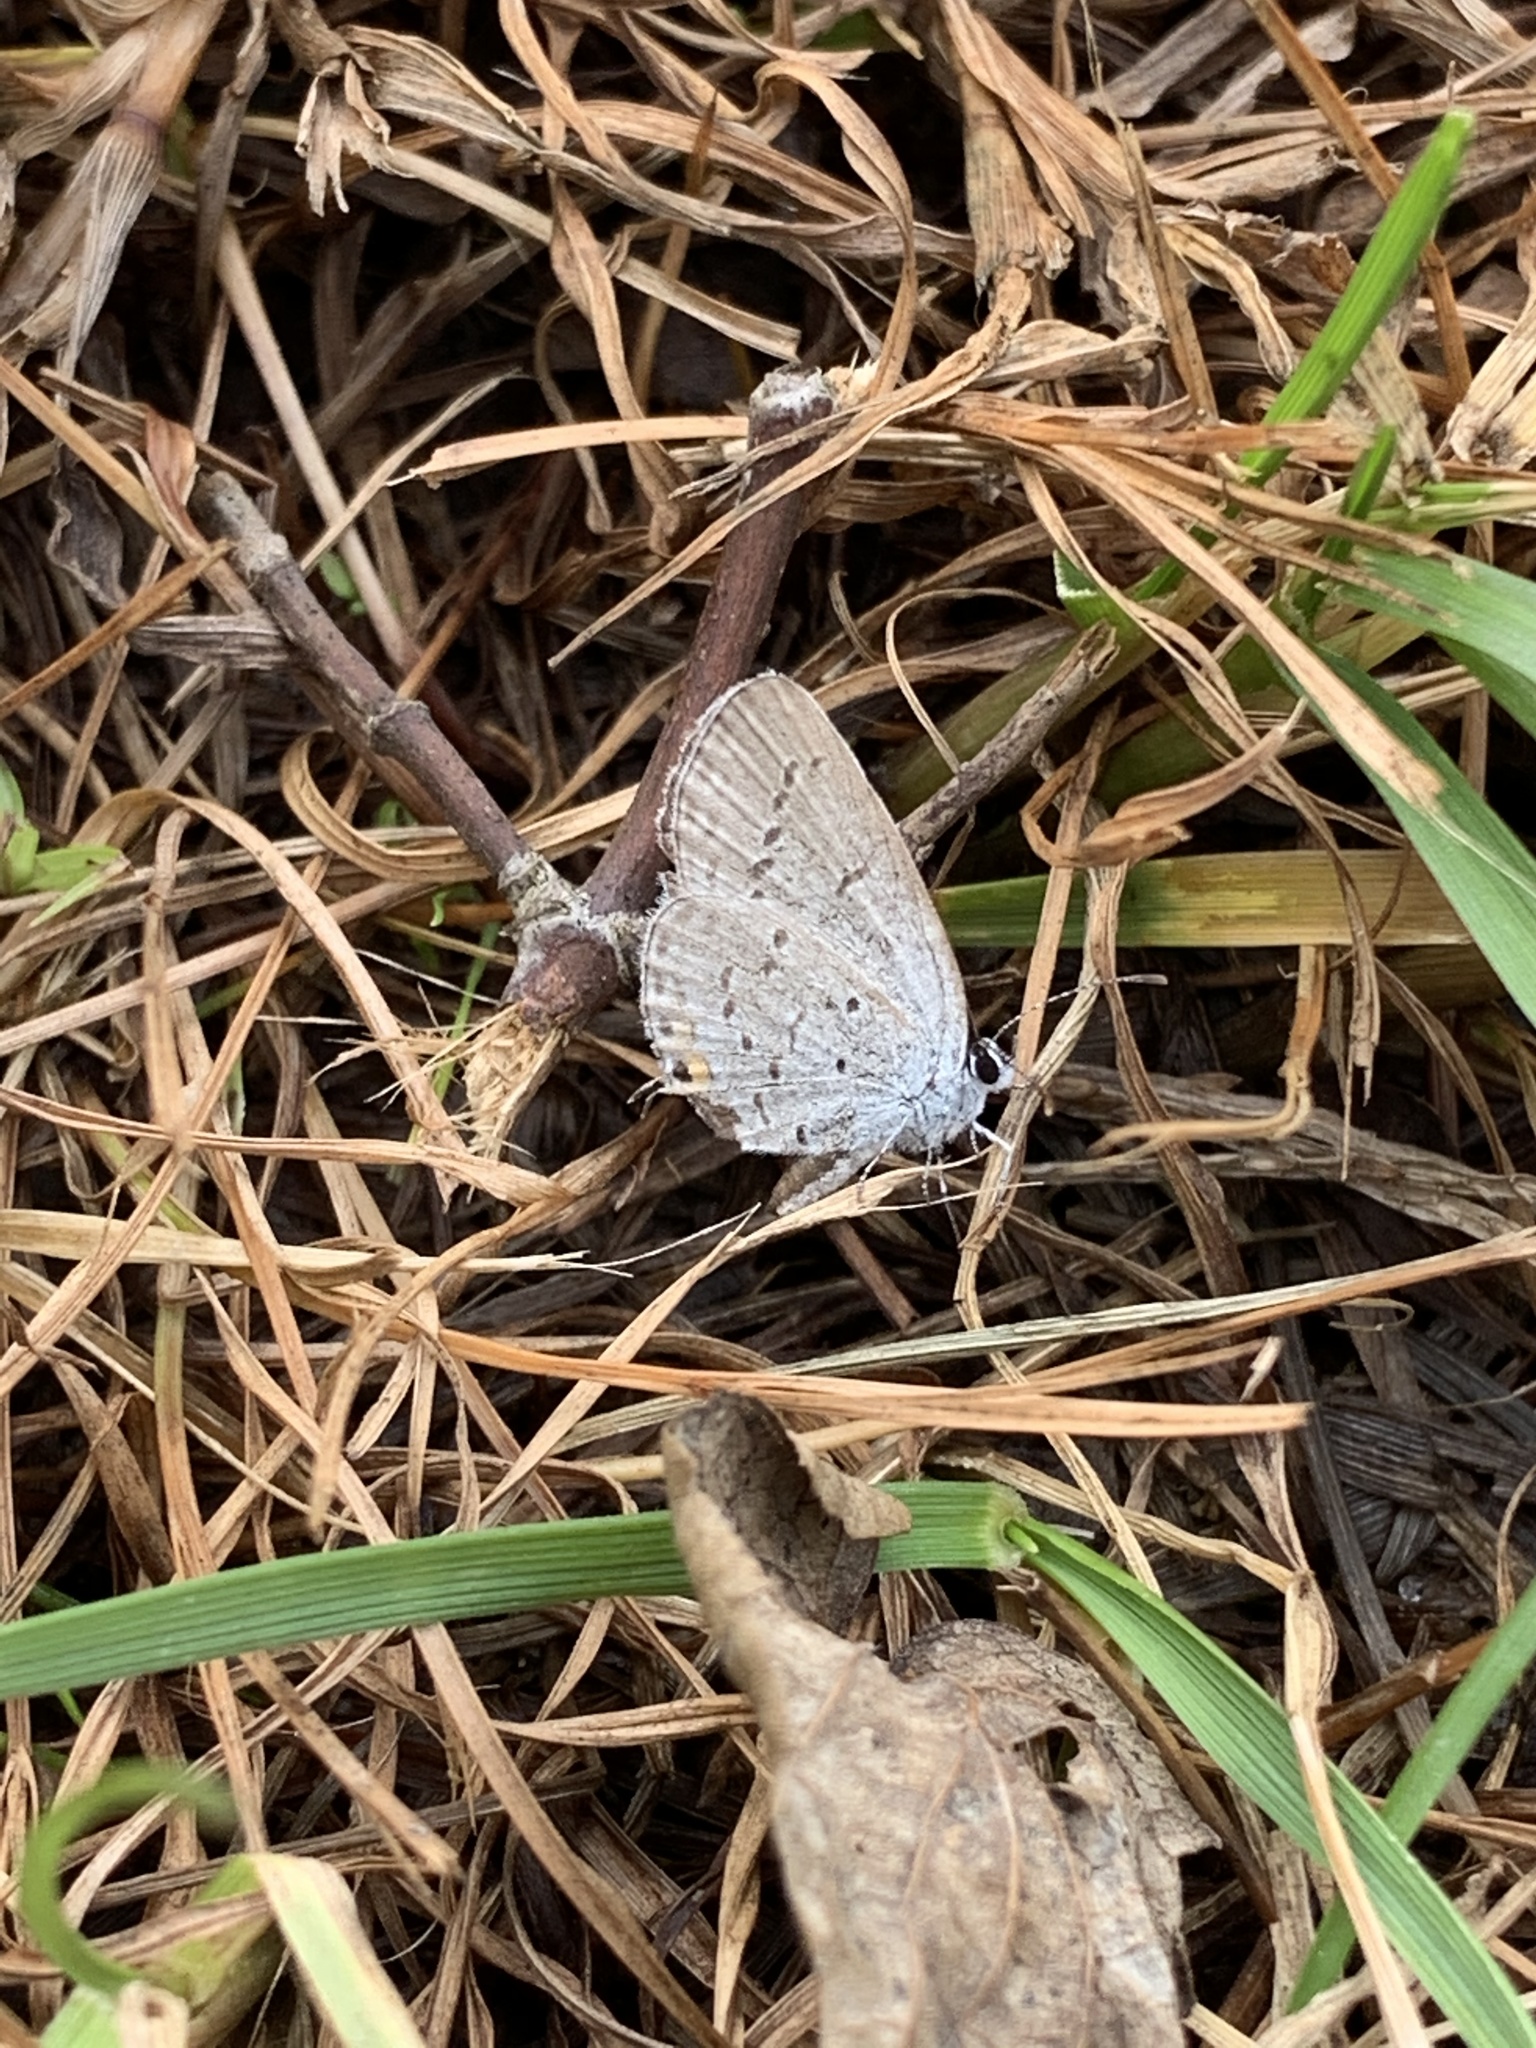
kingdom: Animalia
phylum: Arthropoda
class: Insecta
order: Lepidoptera
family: Lycaenidae
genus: Elkalyce
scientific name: Elkalyce comyntas
